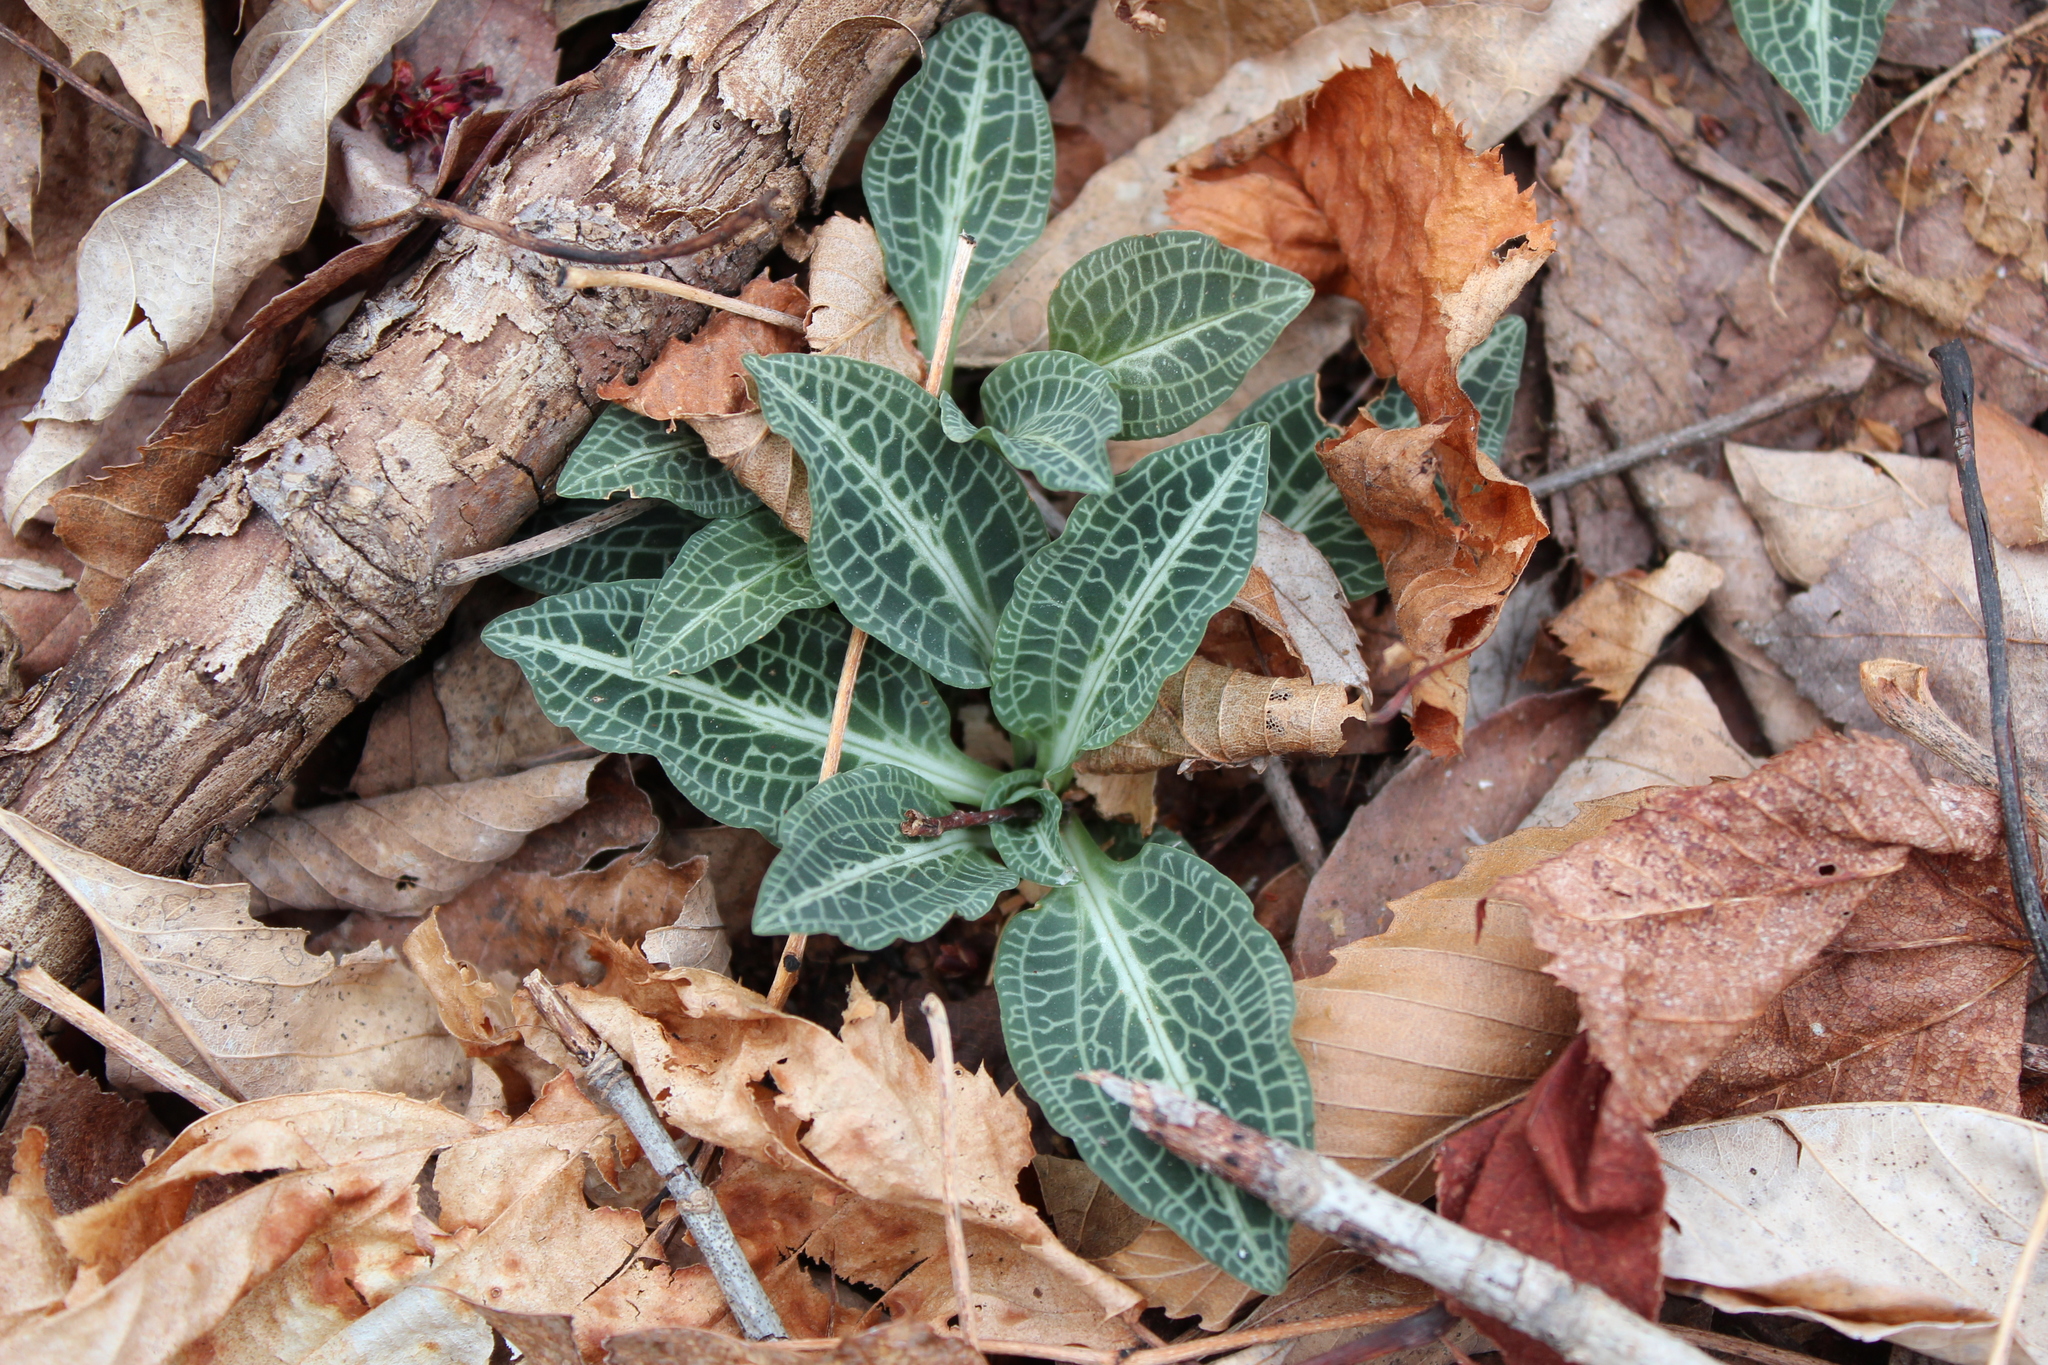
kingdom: Plantae
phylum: Tracheophyta
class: Liliopsida
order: Asparagales
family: Orchidaceae
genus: Goodyera
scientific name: Goodyera pubescens
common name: Downy rattlesnake-plantain
